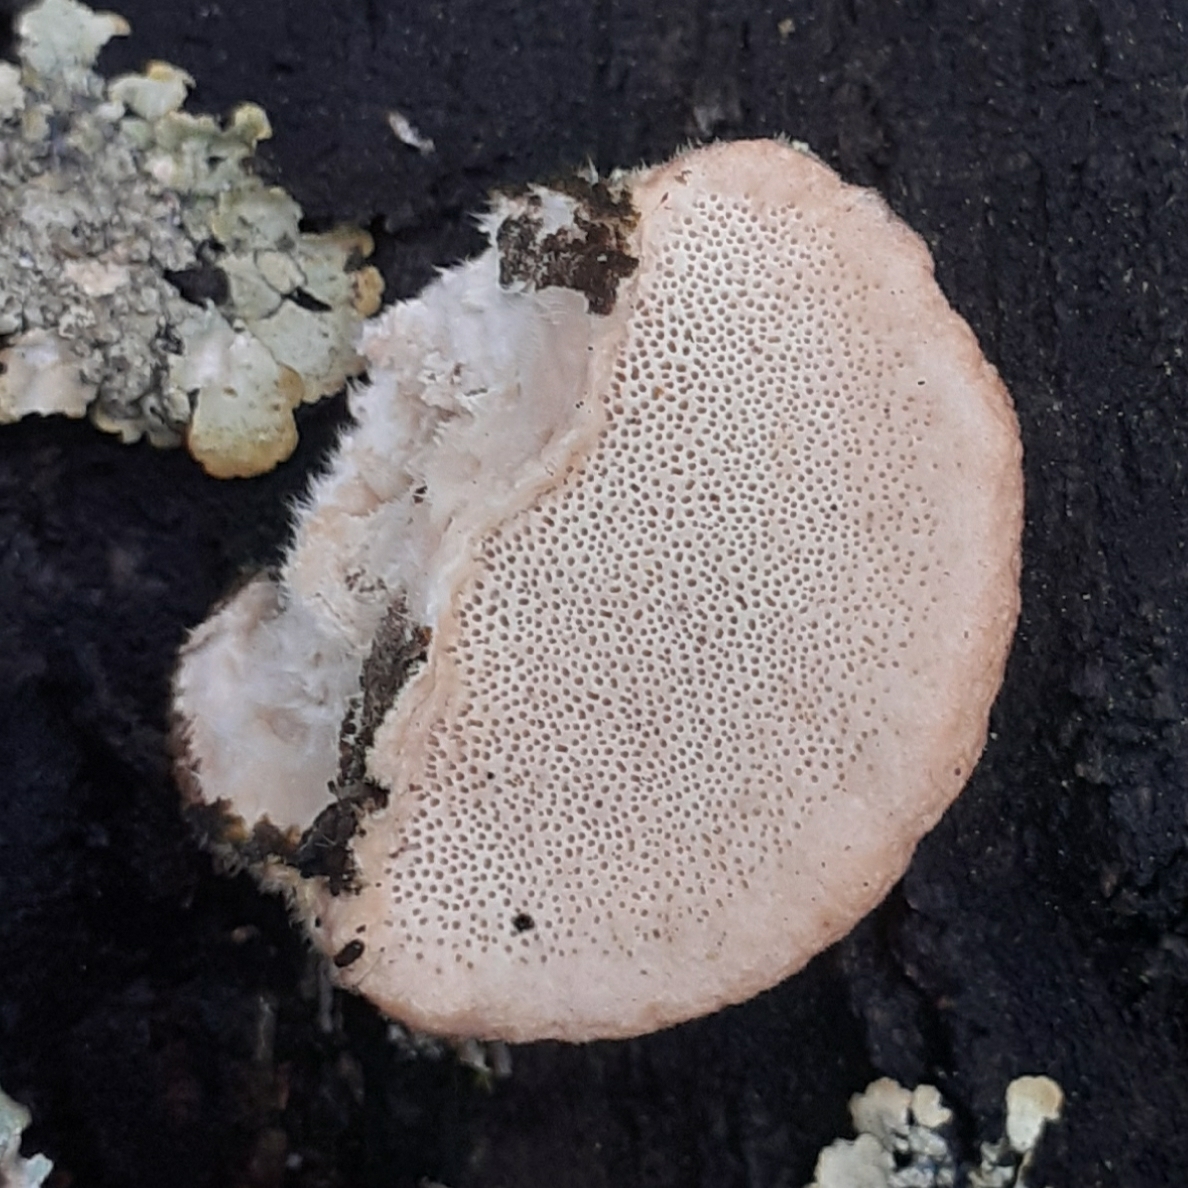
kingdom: Fungi
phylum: Basidiomycota
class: Agaricomycetes
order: Polyporales
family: Polyporaceae
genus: Trametes
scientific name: Trametes hirsuta
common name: Hairy bracket
